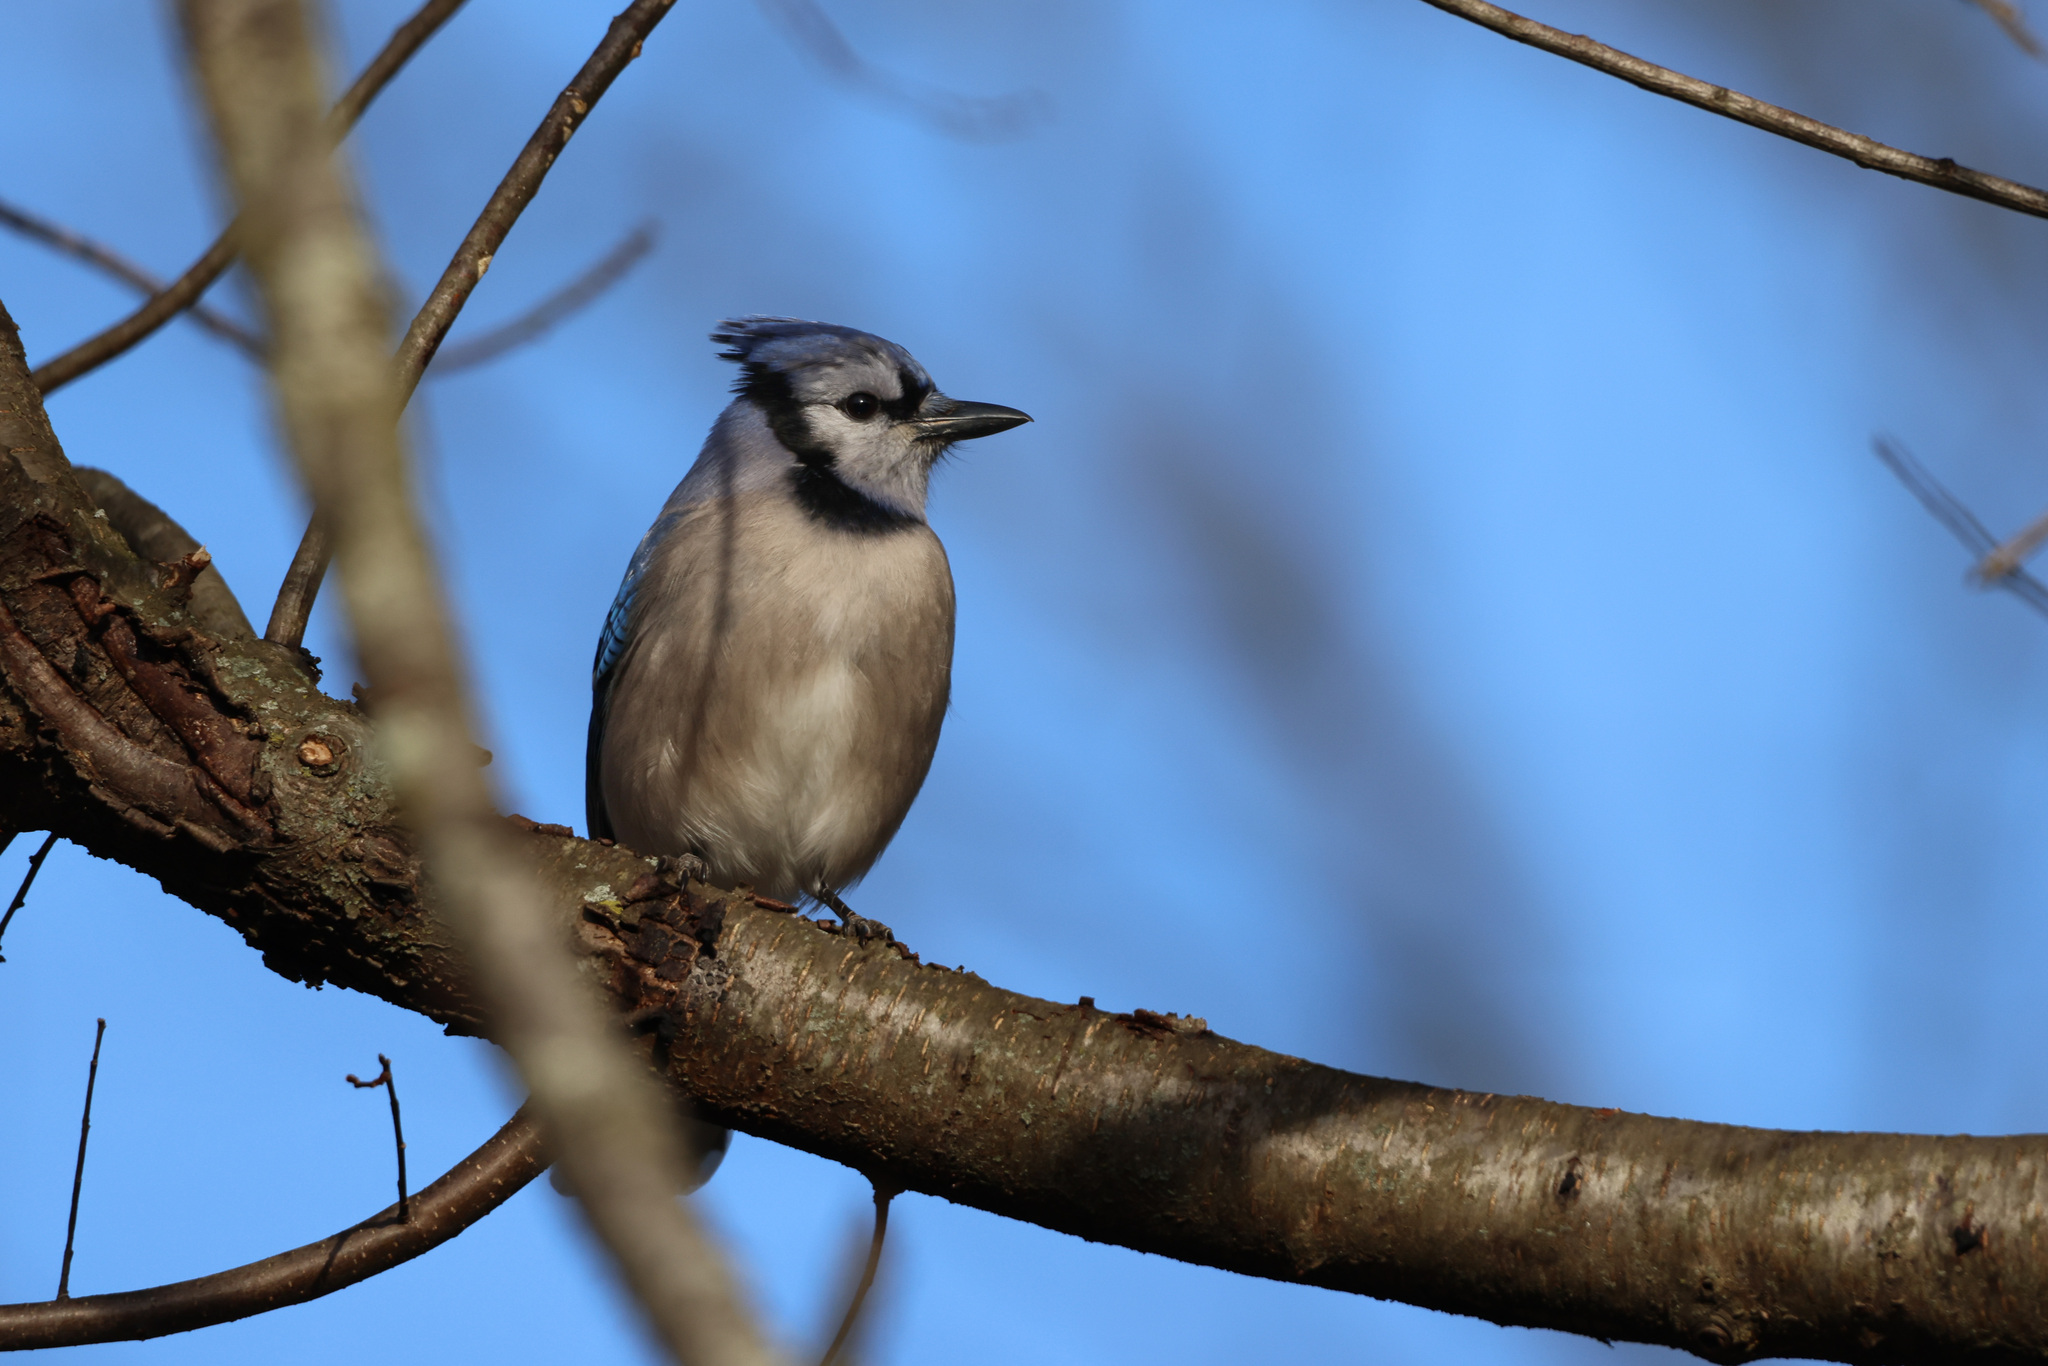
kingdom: Animalia
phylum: Chordata
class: Aves
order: Passeriformes
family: Corvidae
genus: Cyanocitta
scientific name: Cyanocitta cristata
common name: Blue jay
